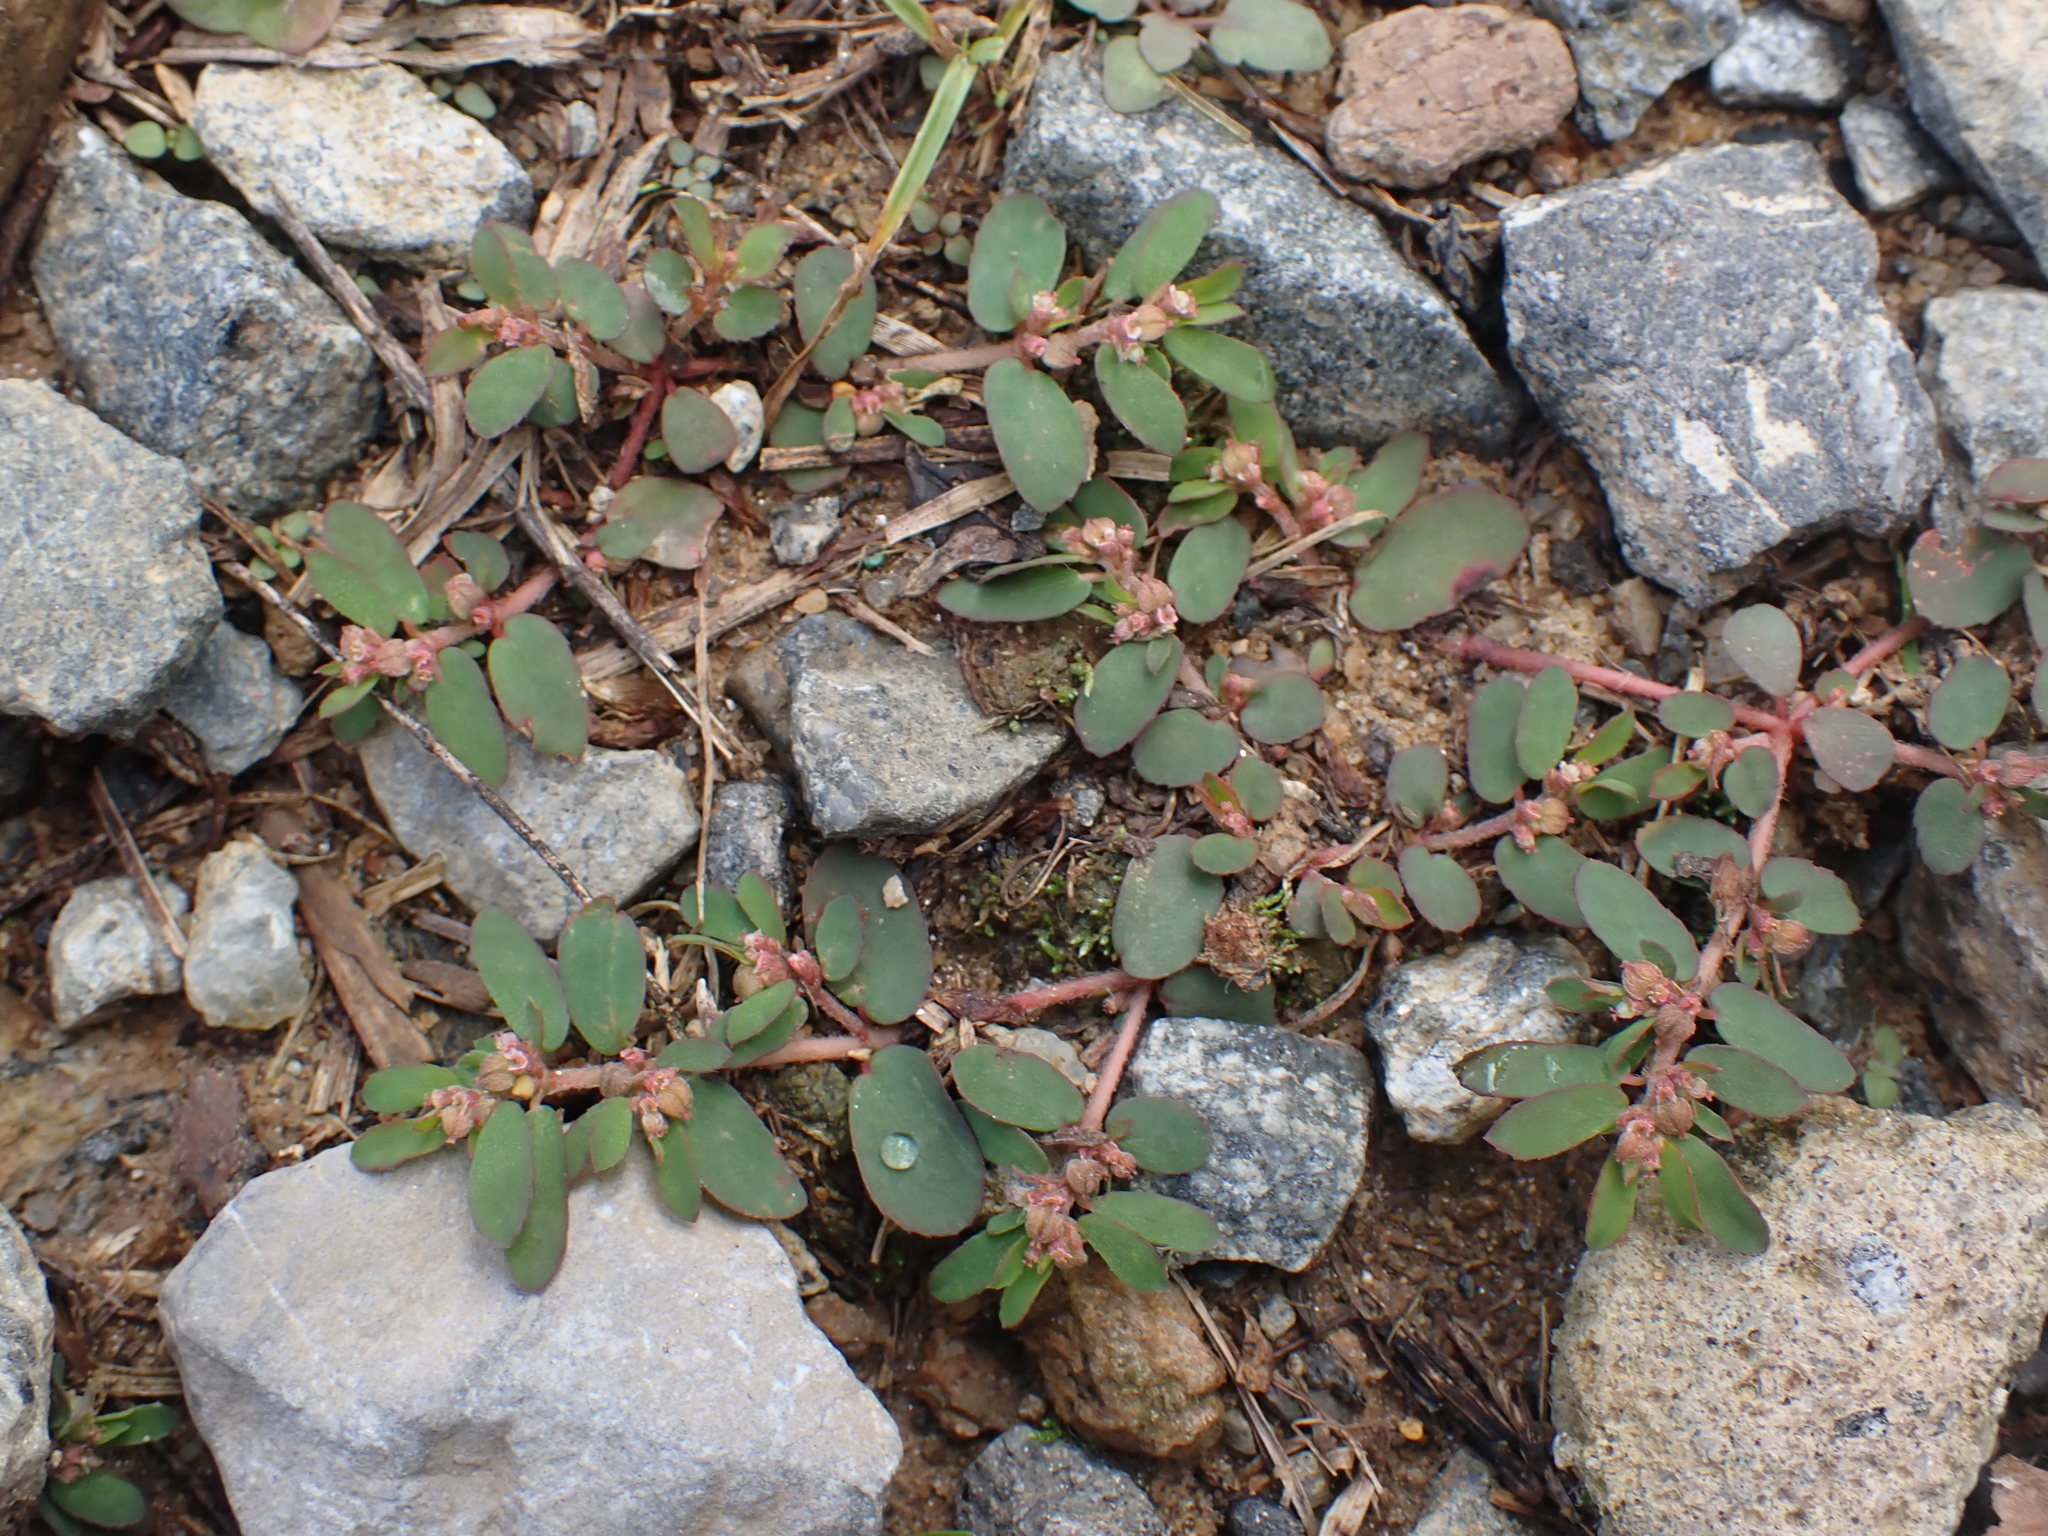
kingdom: Plantae
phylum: Tracheophyta
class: Magnoliopsida
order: Malpighiales
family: Euphorbiaceae
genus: Euphorbia
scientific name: Euphorbia maculata
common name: Spotted spurge
